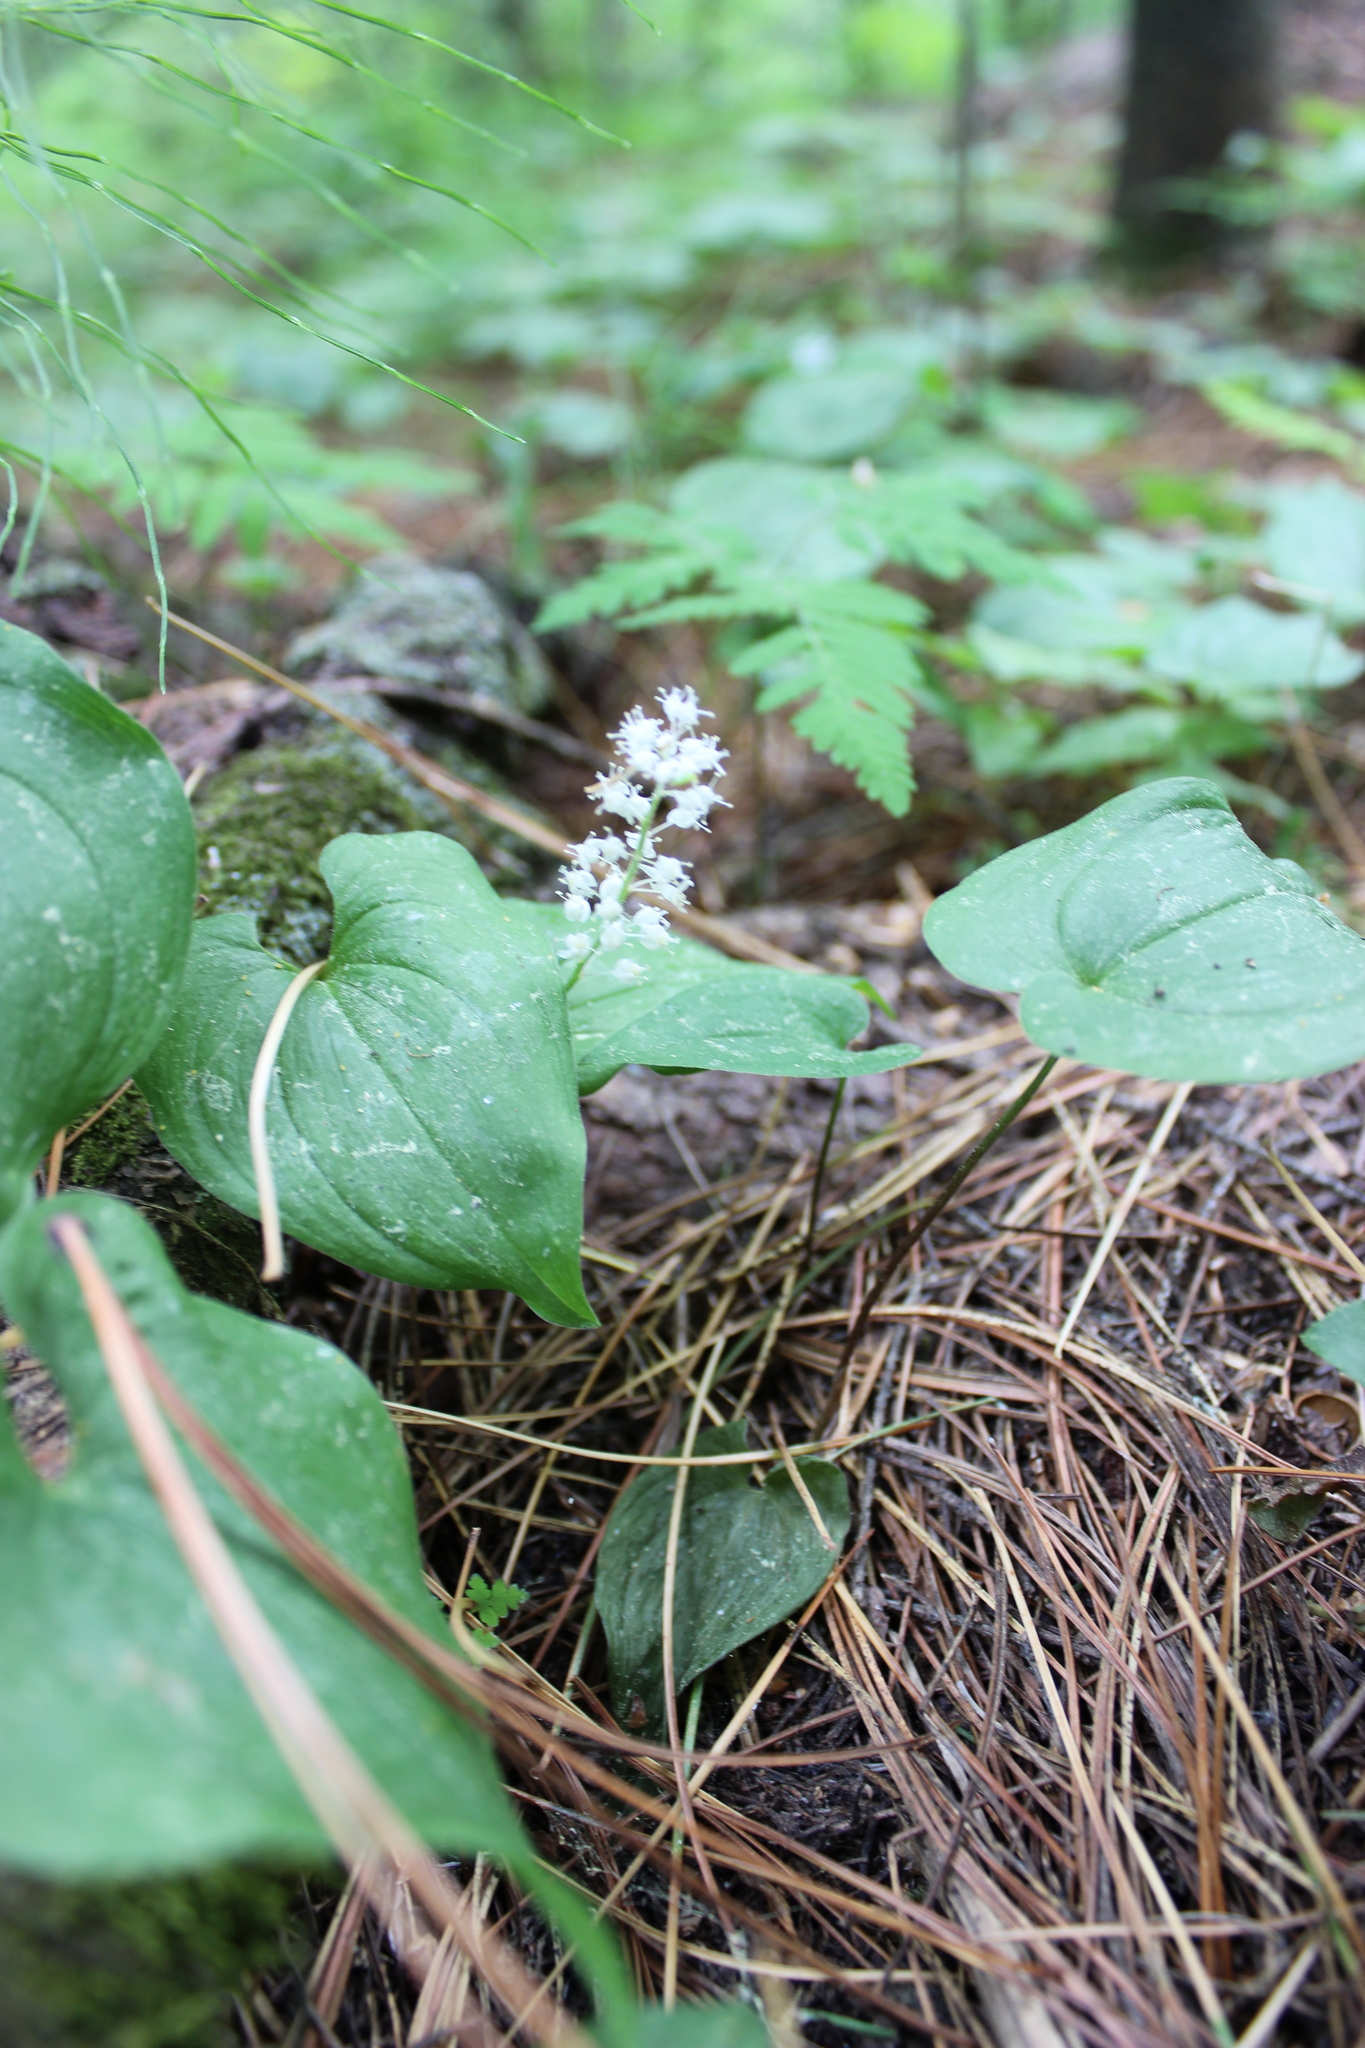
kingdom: Plantae
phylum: Tracheophyta
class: Liliopsida
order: Asparagales
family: Asparagaceae
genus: Maianthemum
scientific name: Maianthemum bifolium
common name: May lily
